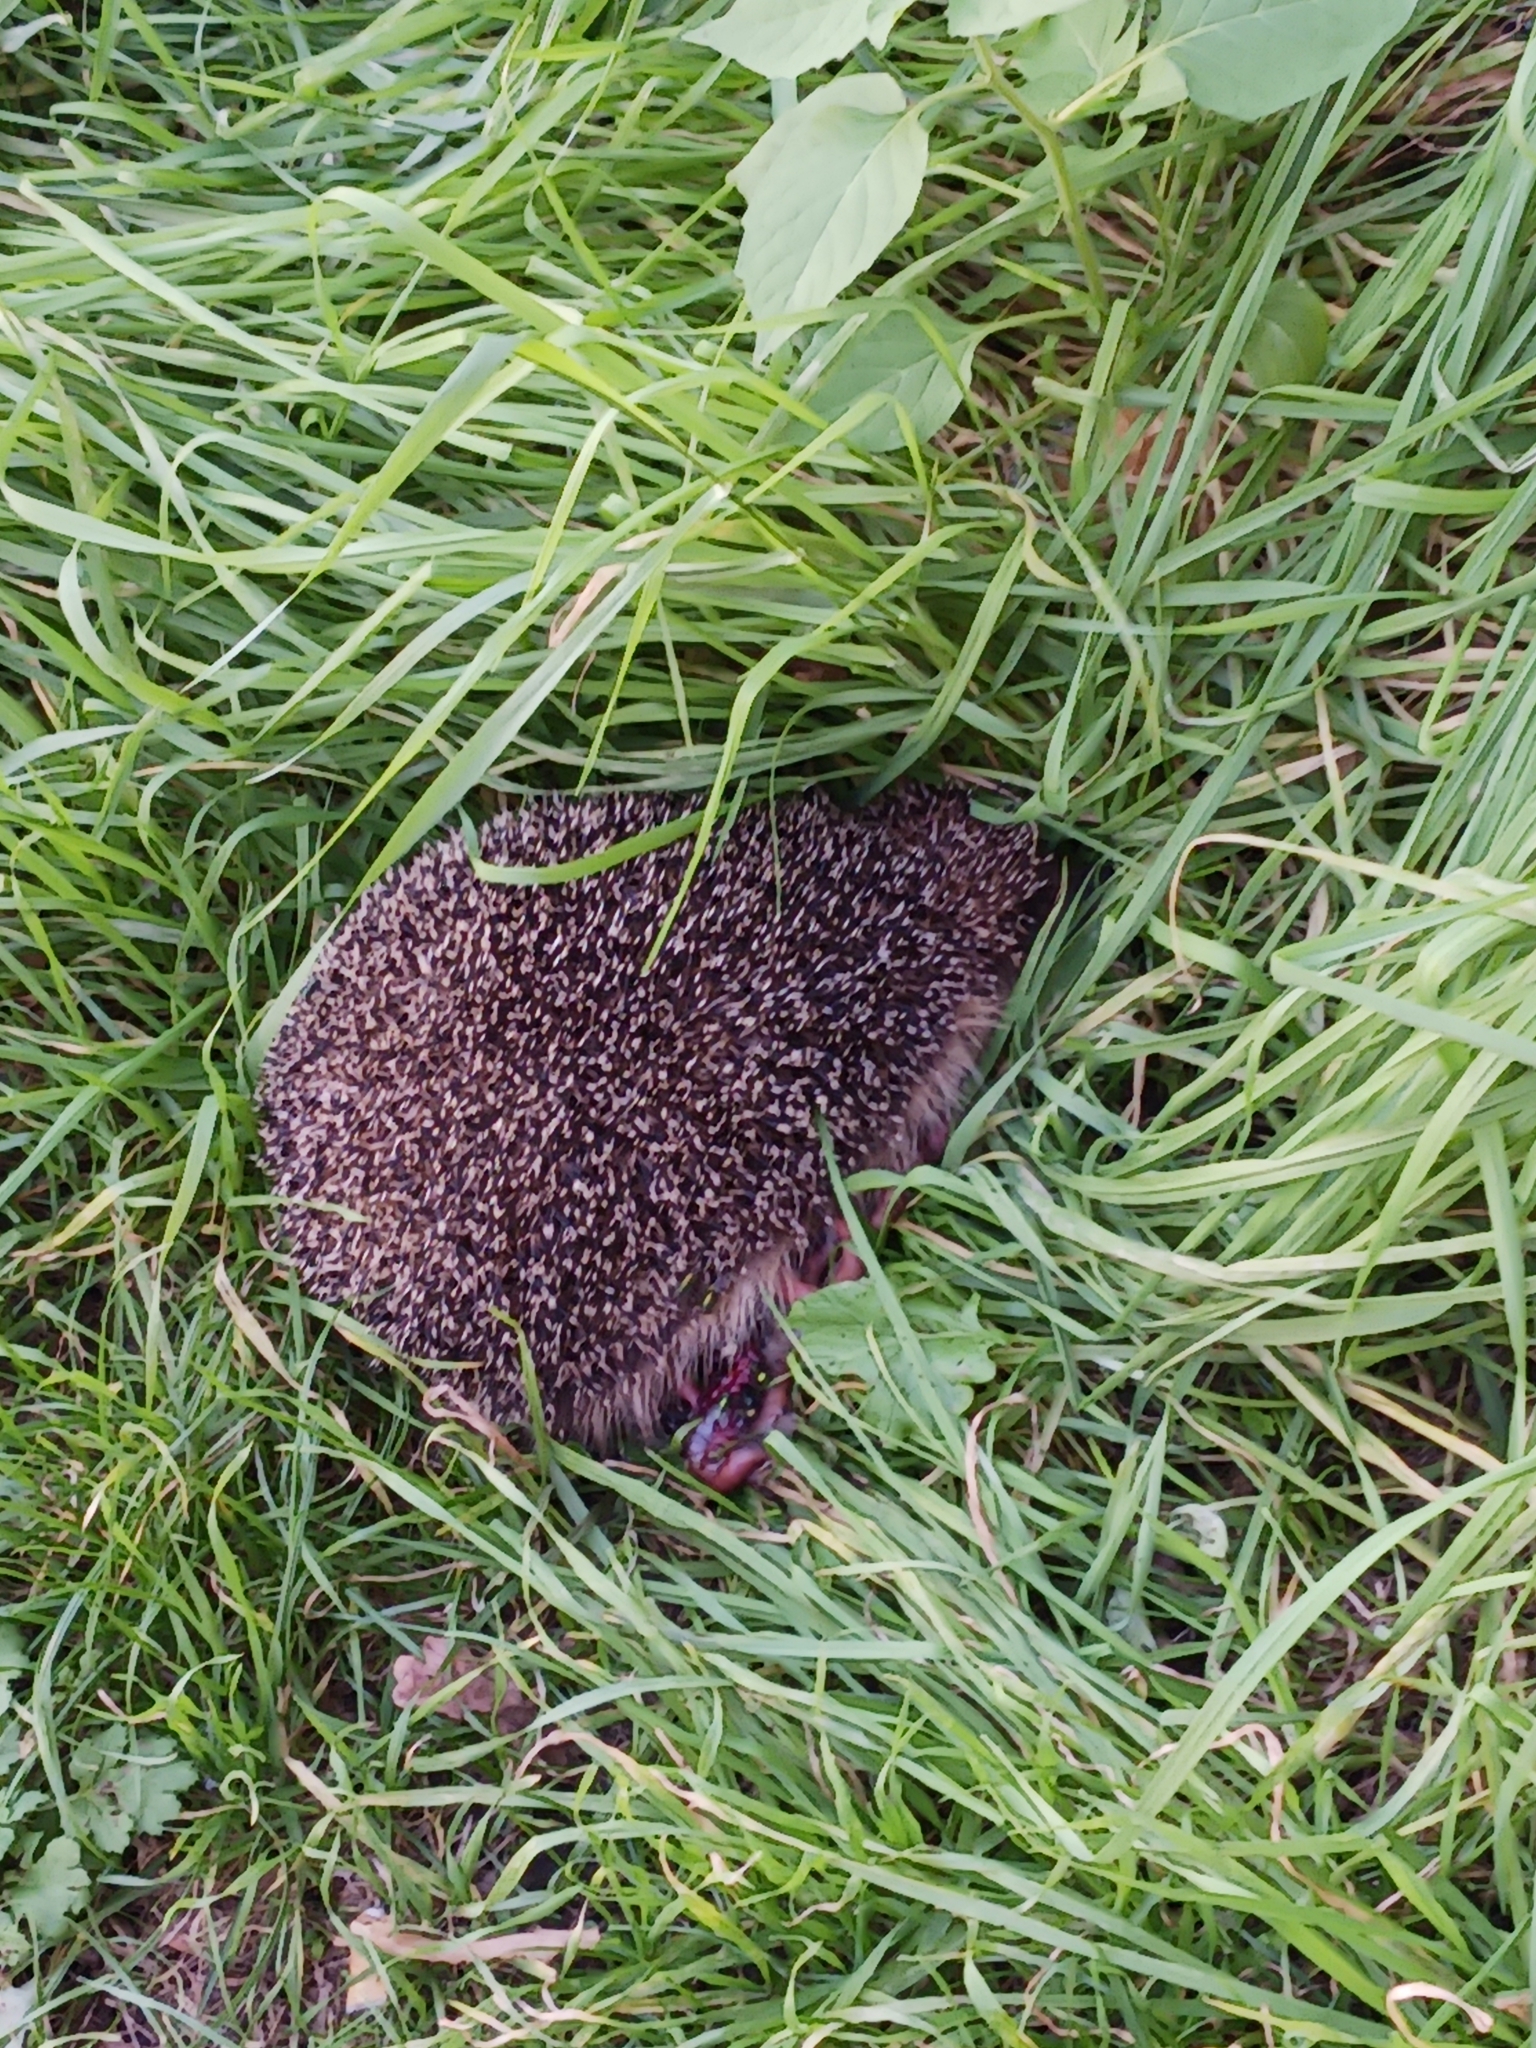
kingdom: Animalia
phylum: Chordata
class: Mammalia
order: Erinaceomorpha
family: Erinaceidae
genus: Erinaceus
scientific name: Erinaceus europaeus
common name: West european hedgehog
